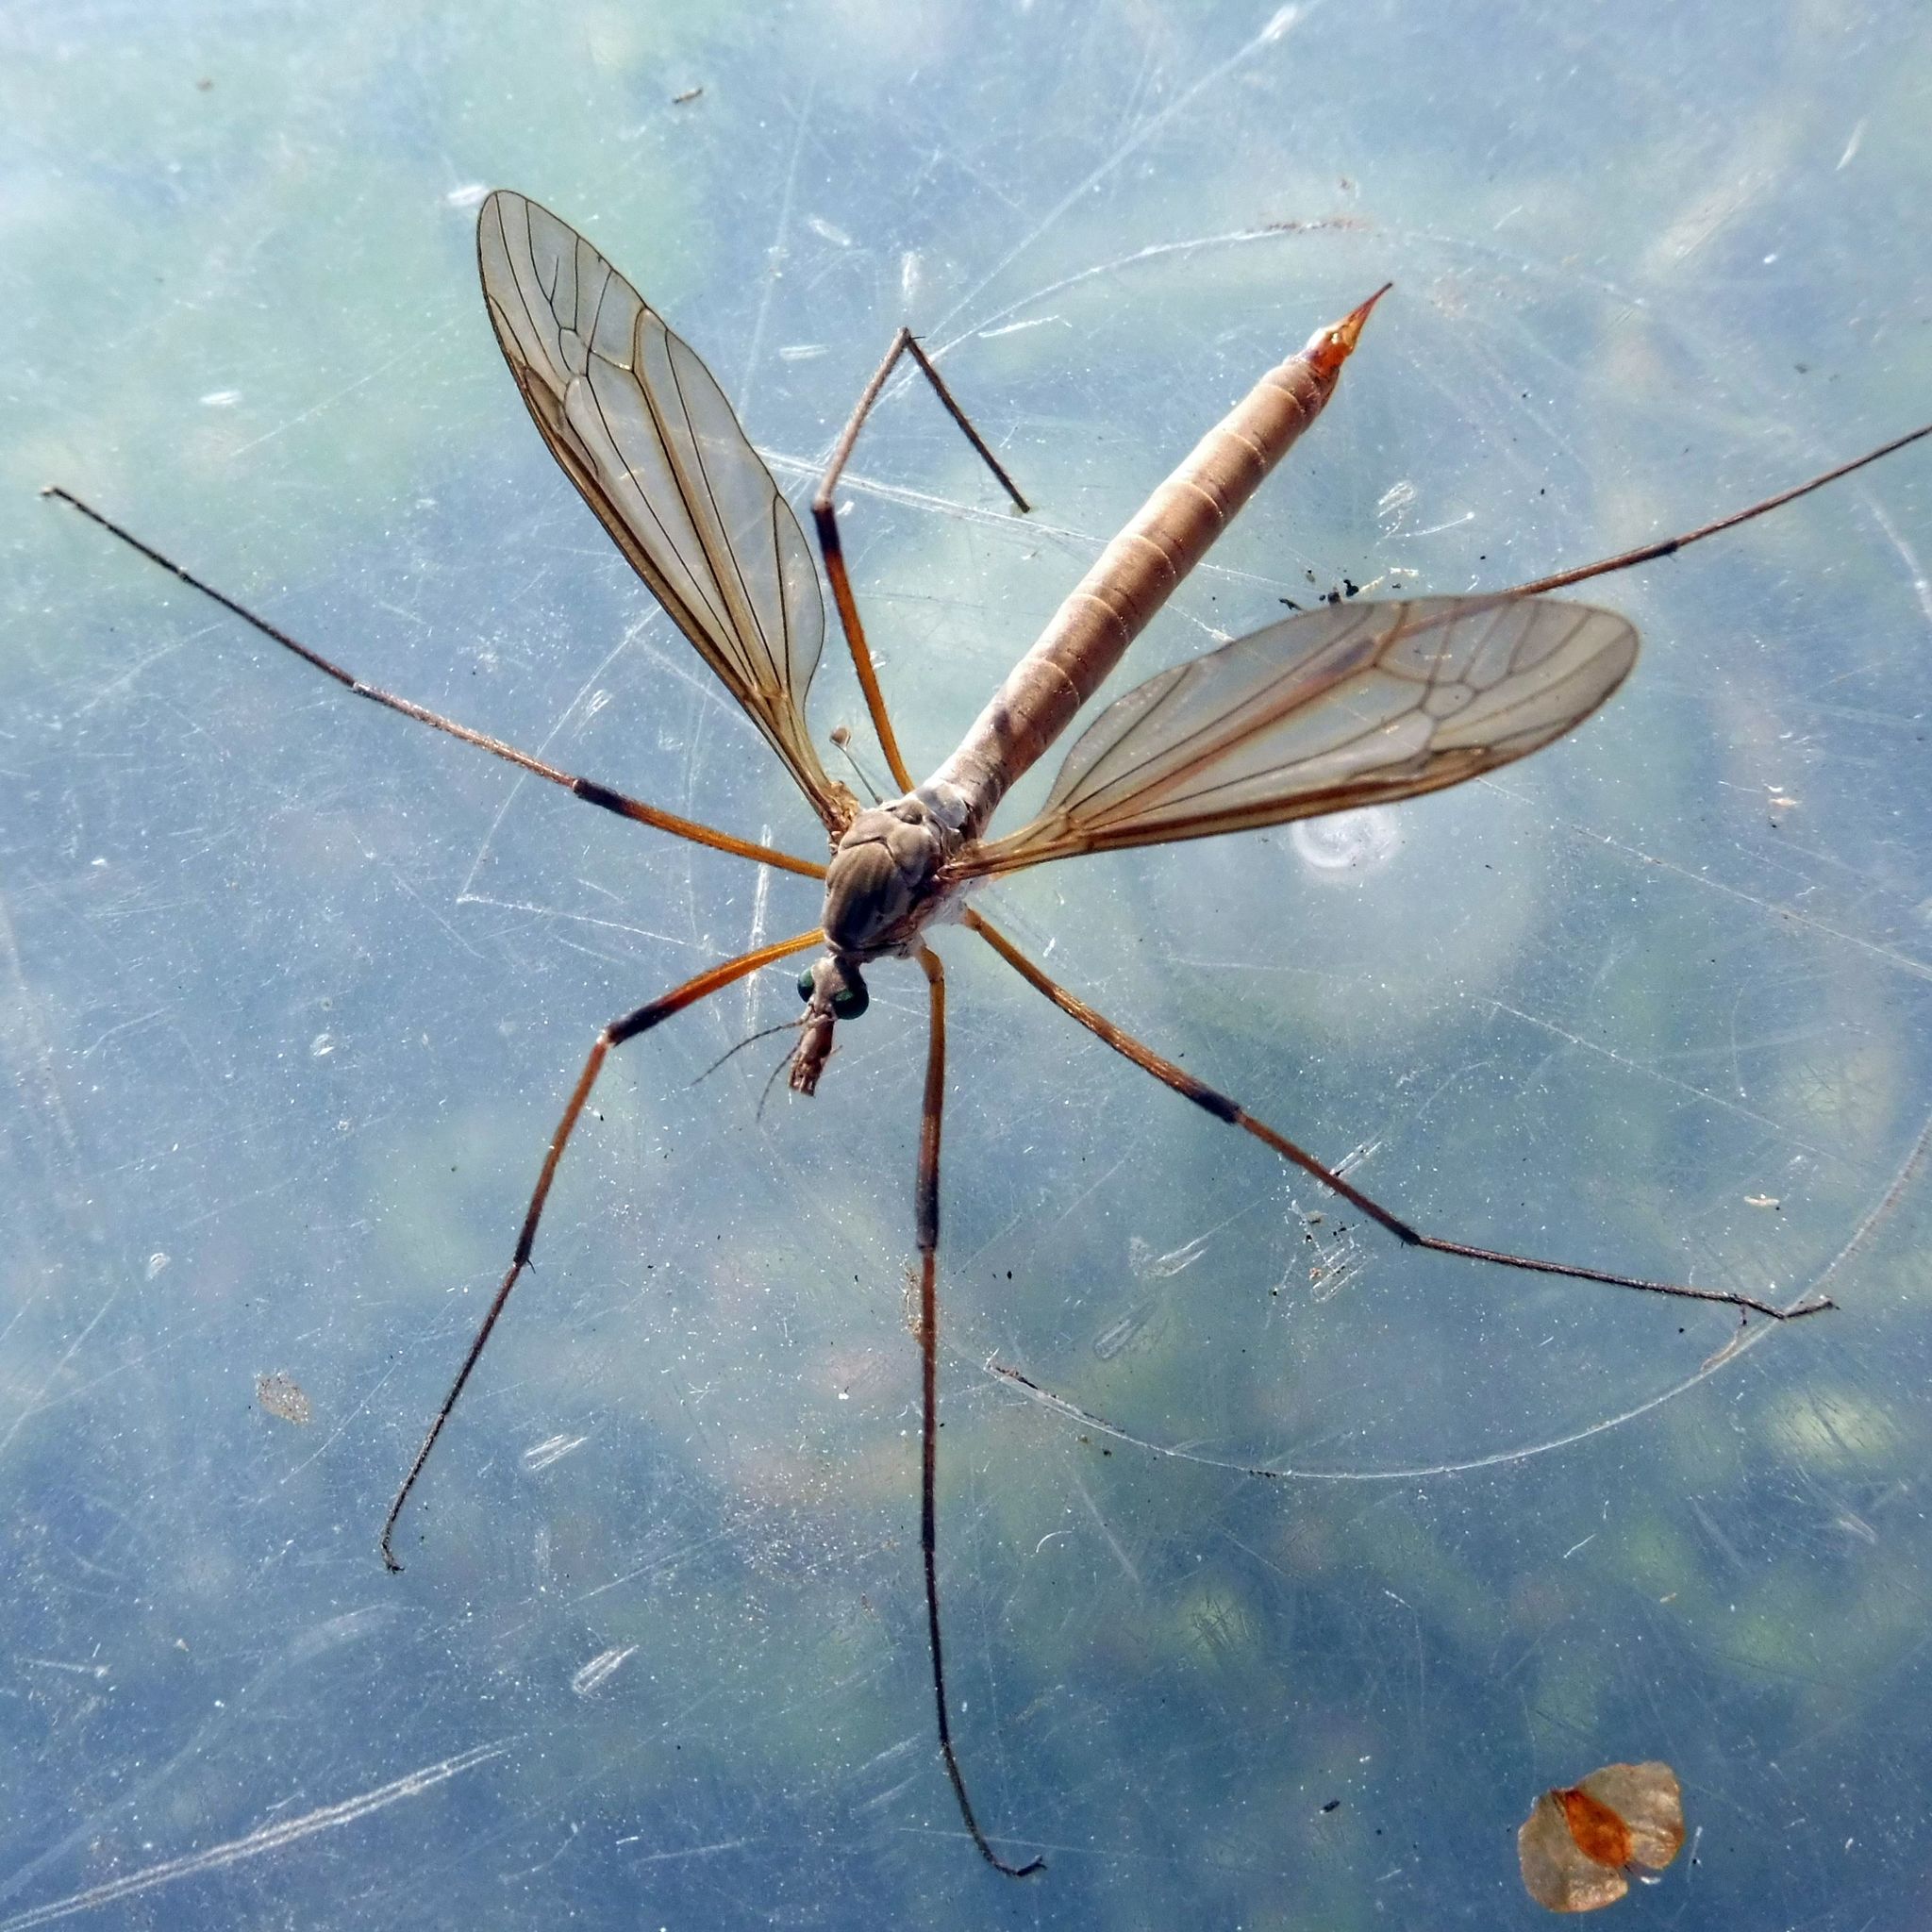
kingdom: Animalia
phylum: Arthropoda
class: Insecta
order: Diptera
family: Tipulidae
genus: Tipula
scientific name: Tipula paludosa
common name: European cranefly
